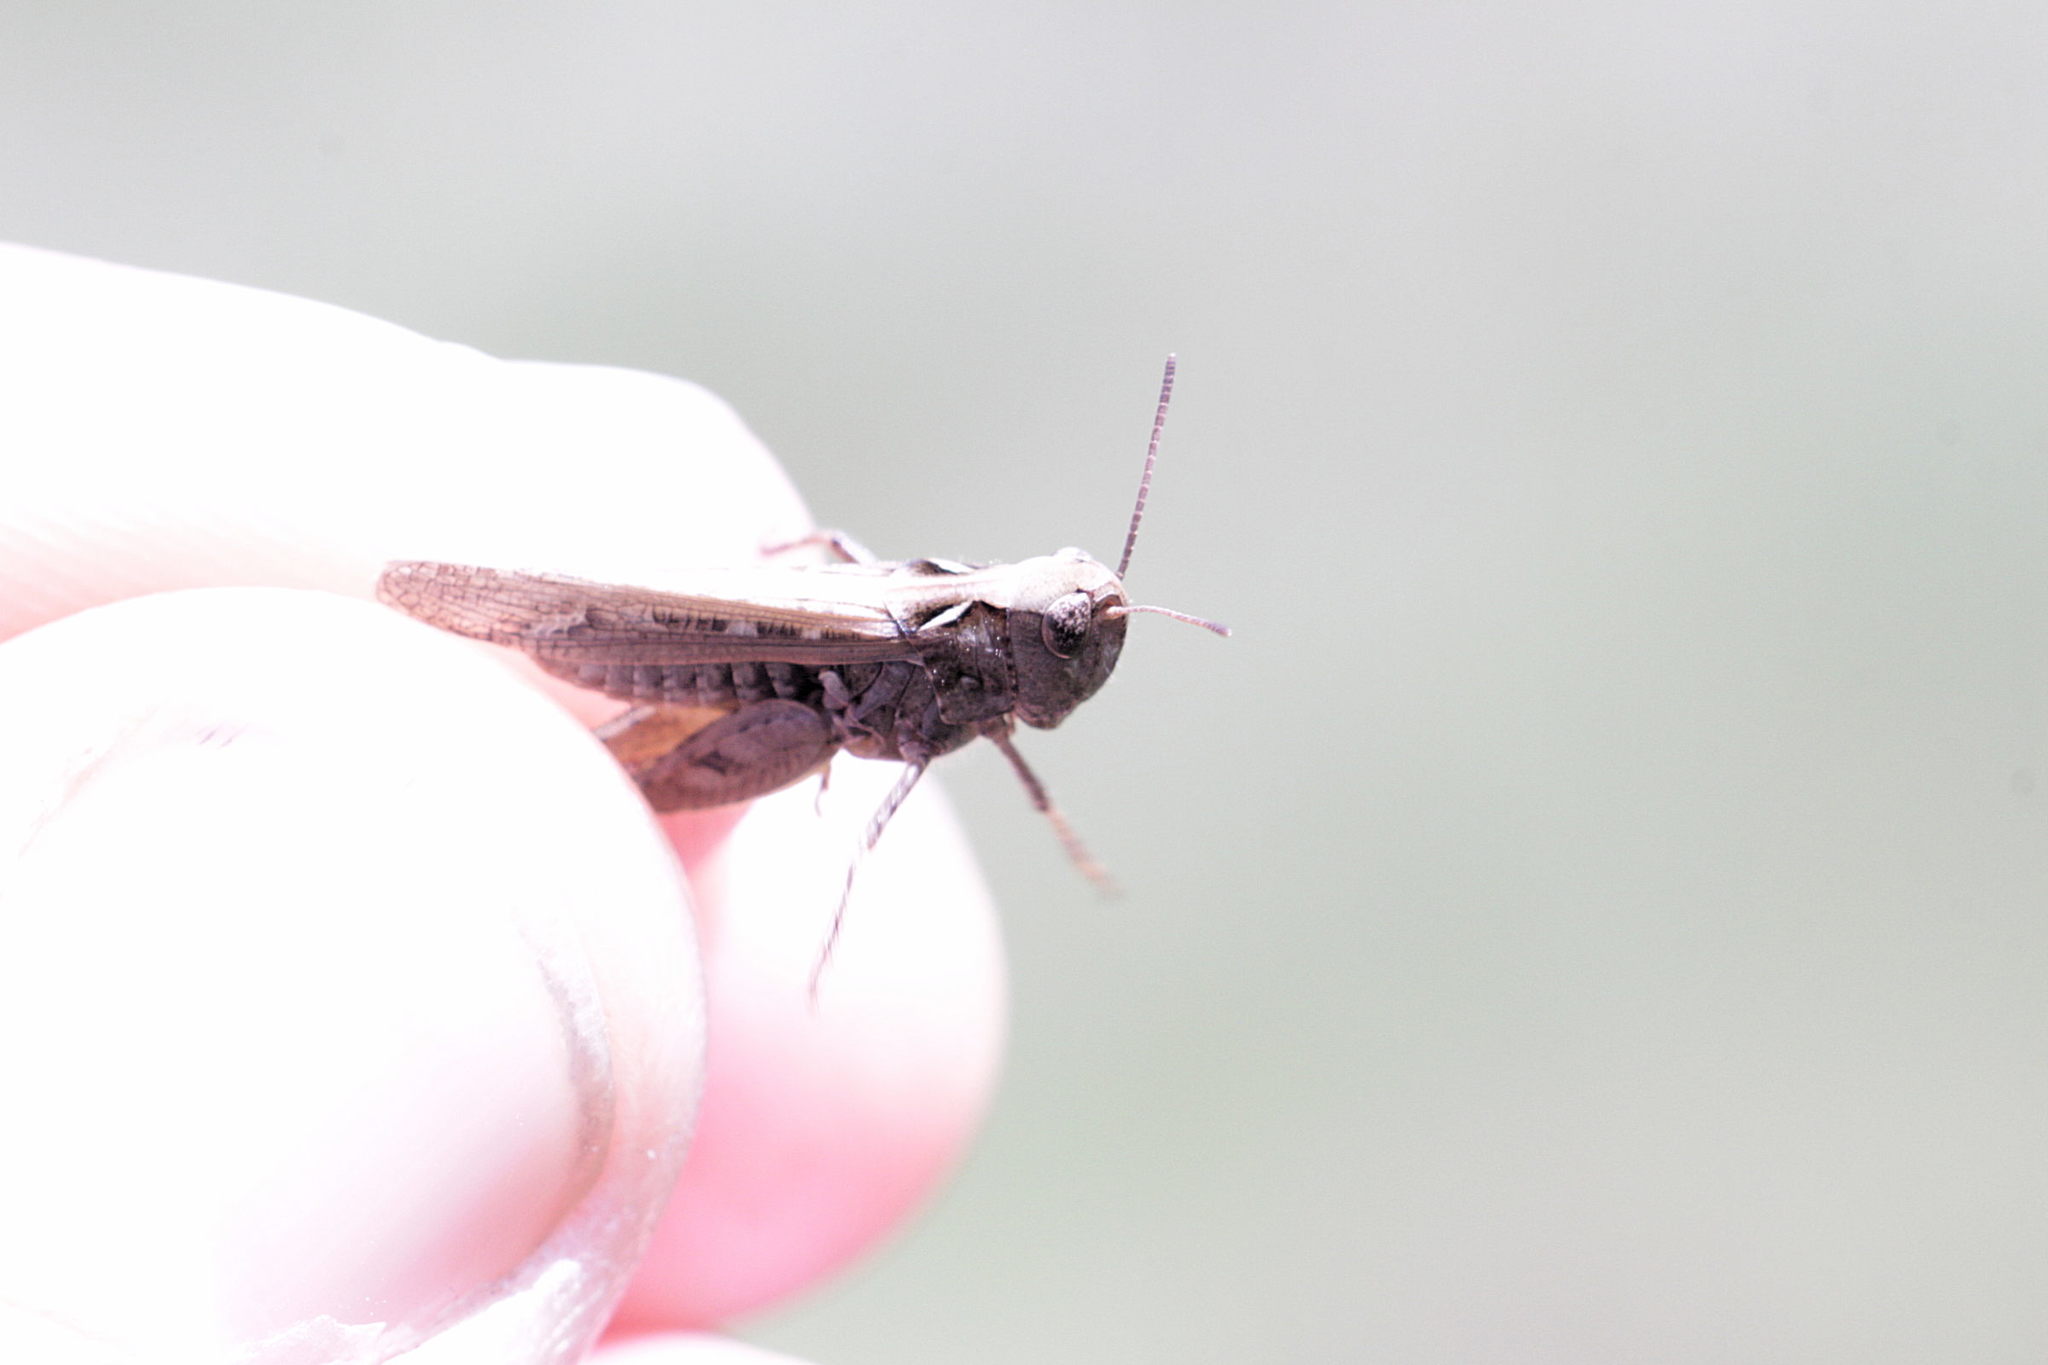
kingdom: Animalia
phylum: Arthropoda
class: Insecta
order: Orthoptera
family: Acrididae
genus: Myrmeleotettix
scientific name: Myrmeleotettix maculatus
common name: Mottled grasshopper
